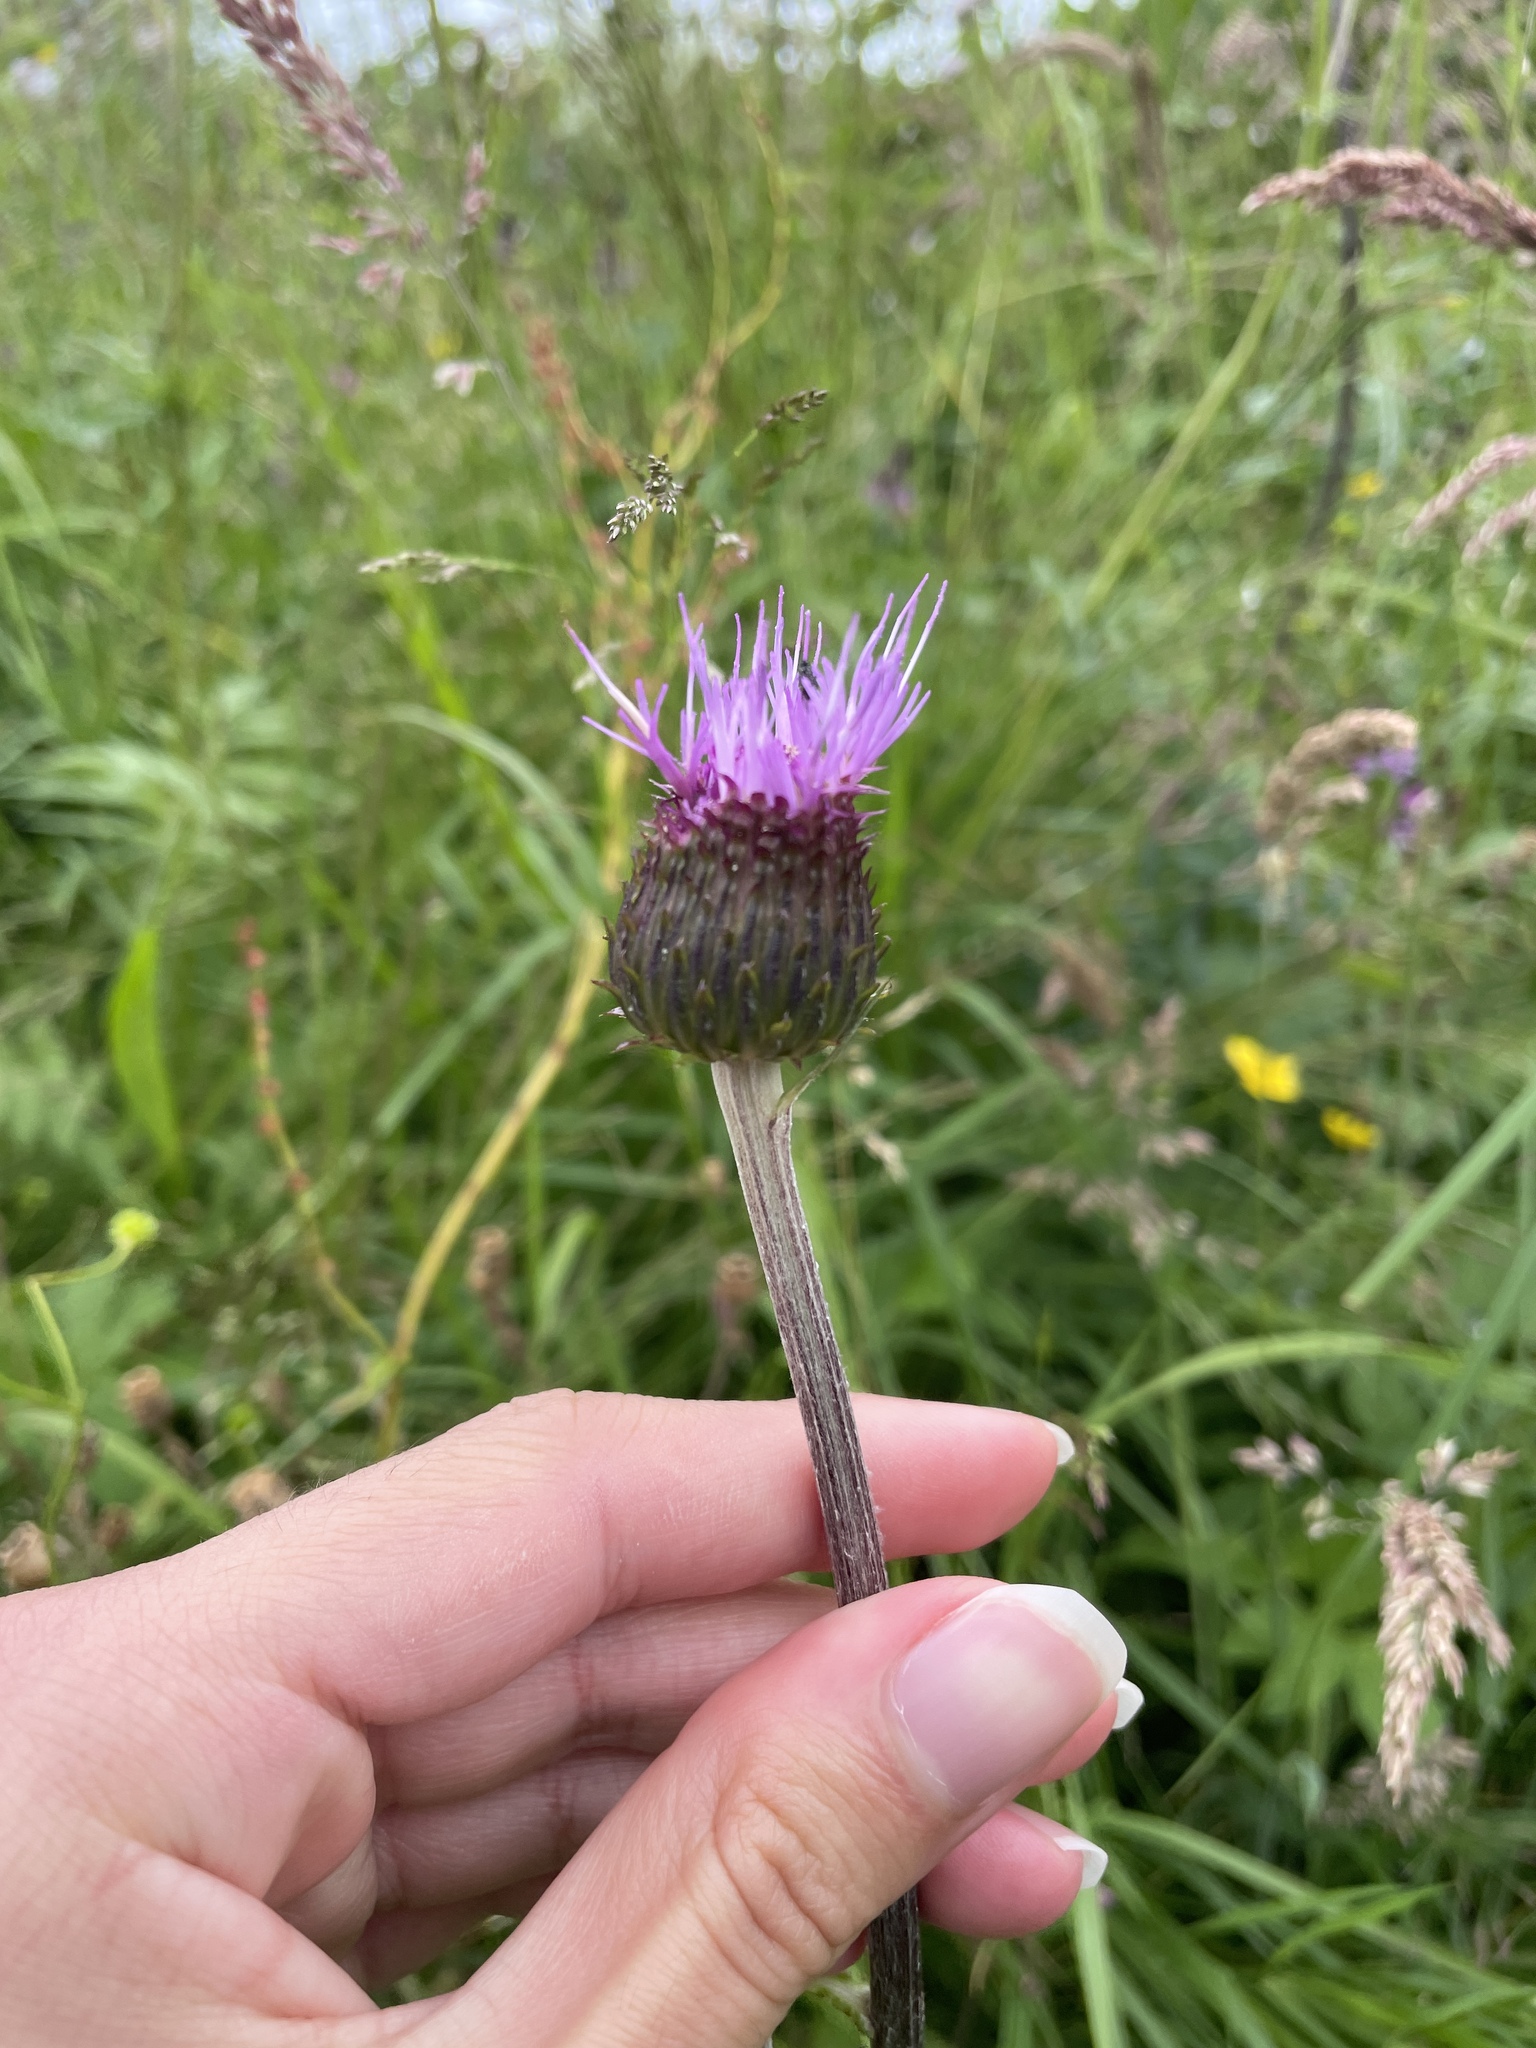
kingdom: Plantae
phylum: Tracheophyta
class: Magnoliopsida
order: Asterales
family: Asteraceae
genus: Cirsium
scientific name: Cirsium heterophyllum
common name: Melancholy thistle
